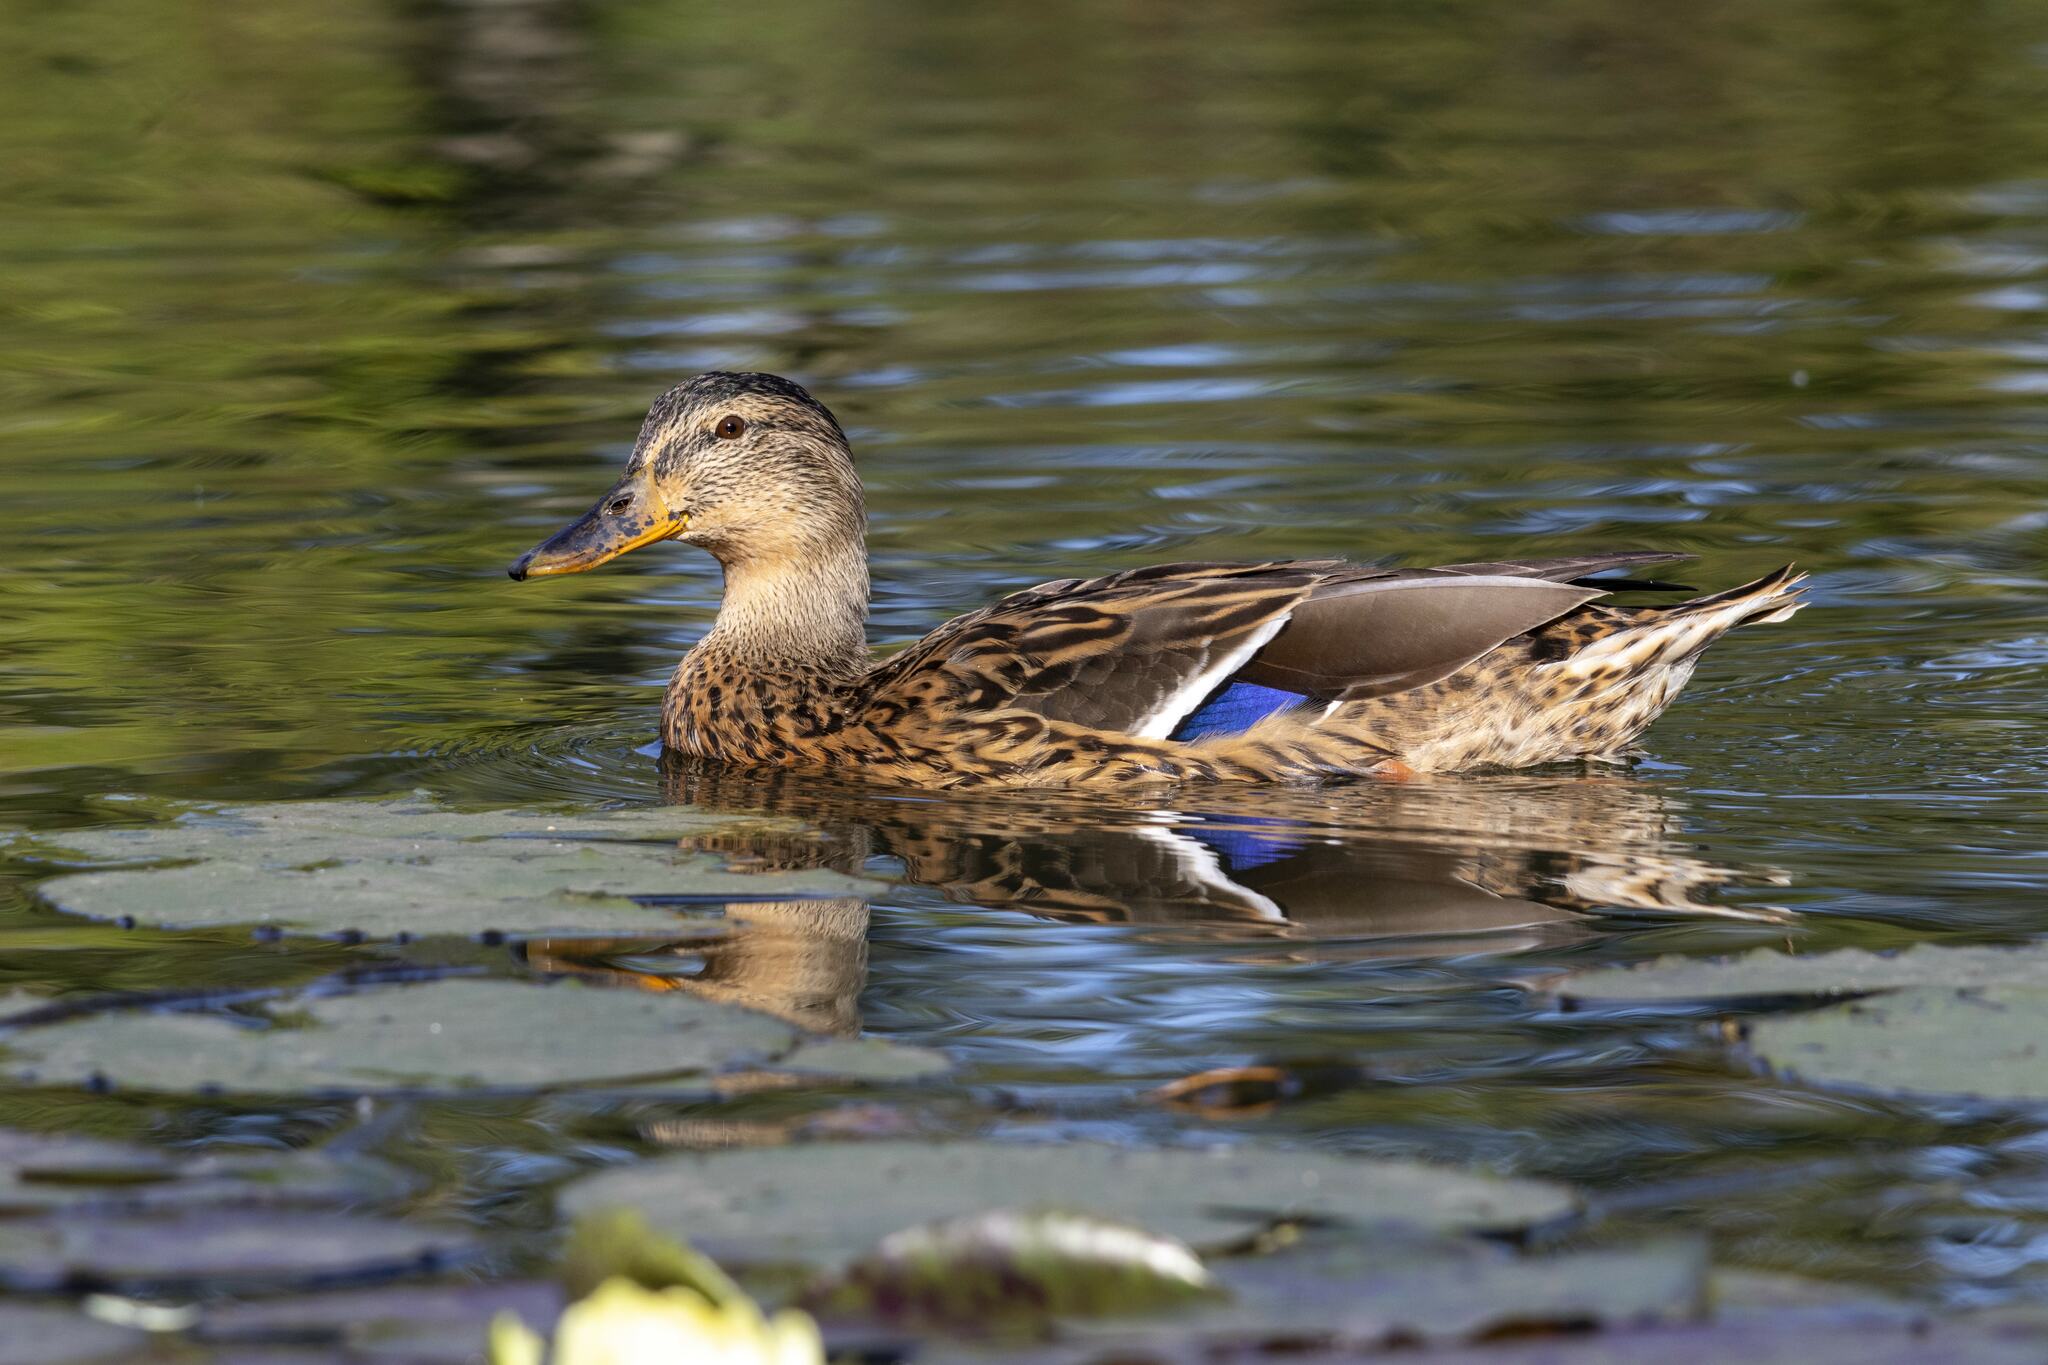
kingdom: Animalia
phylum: Chordata
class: Aves
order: Anseriformes
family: Anatidae
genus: Anas
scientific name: Anas platyrhynchos
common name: Mallard
